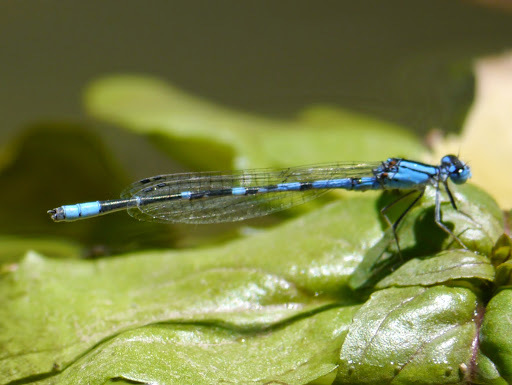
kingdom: Animalia
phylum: Arthropoda
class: Insecta
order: Odonata
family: Coenagrionidae
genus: Enallagma
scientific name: Enallagma praevarum
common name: Arroyo bluet
